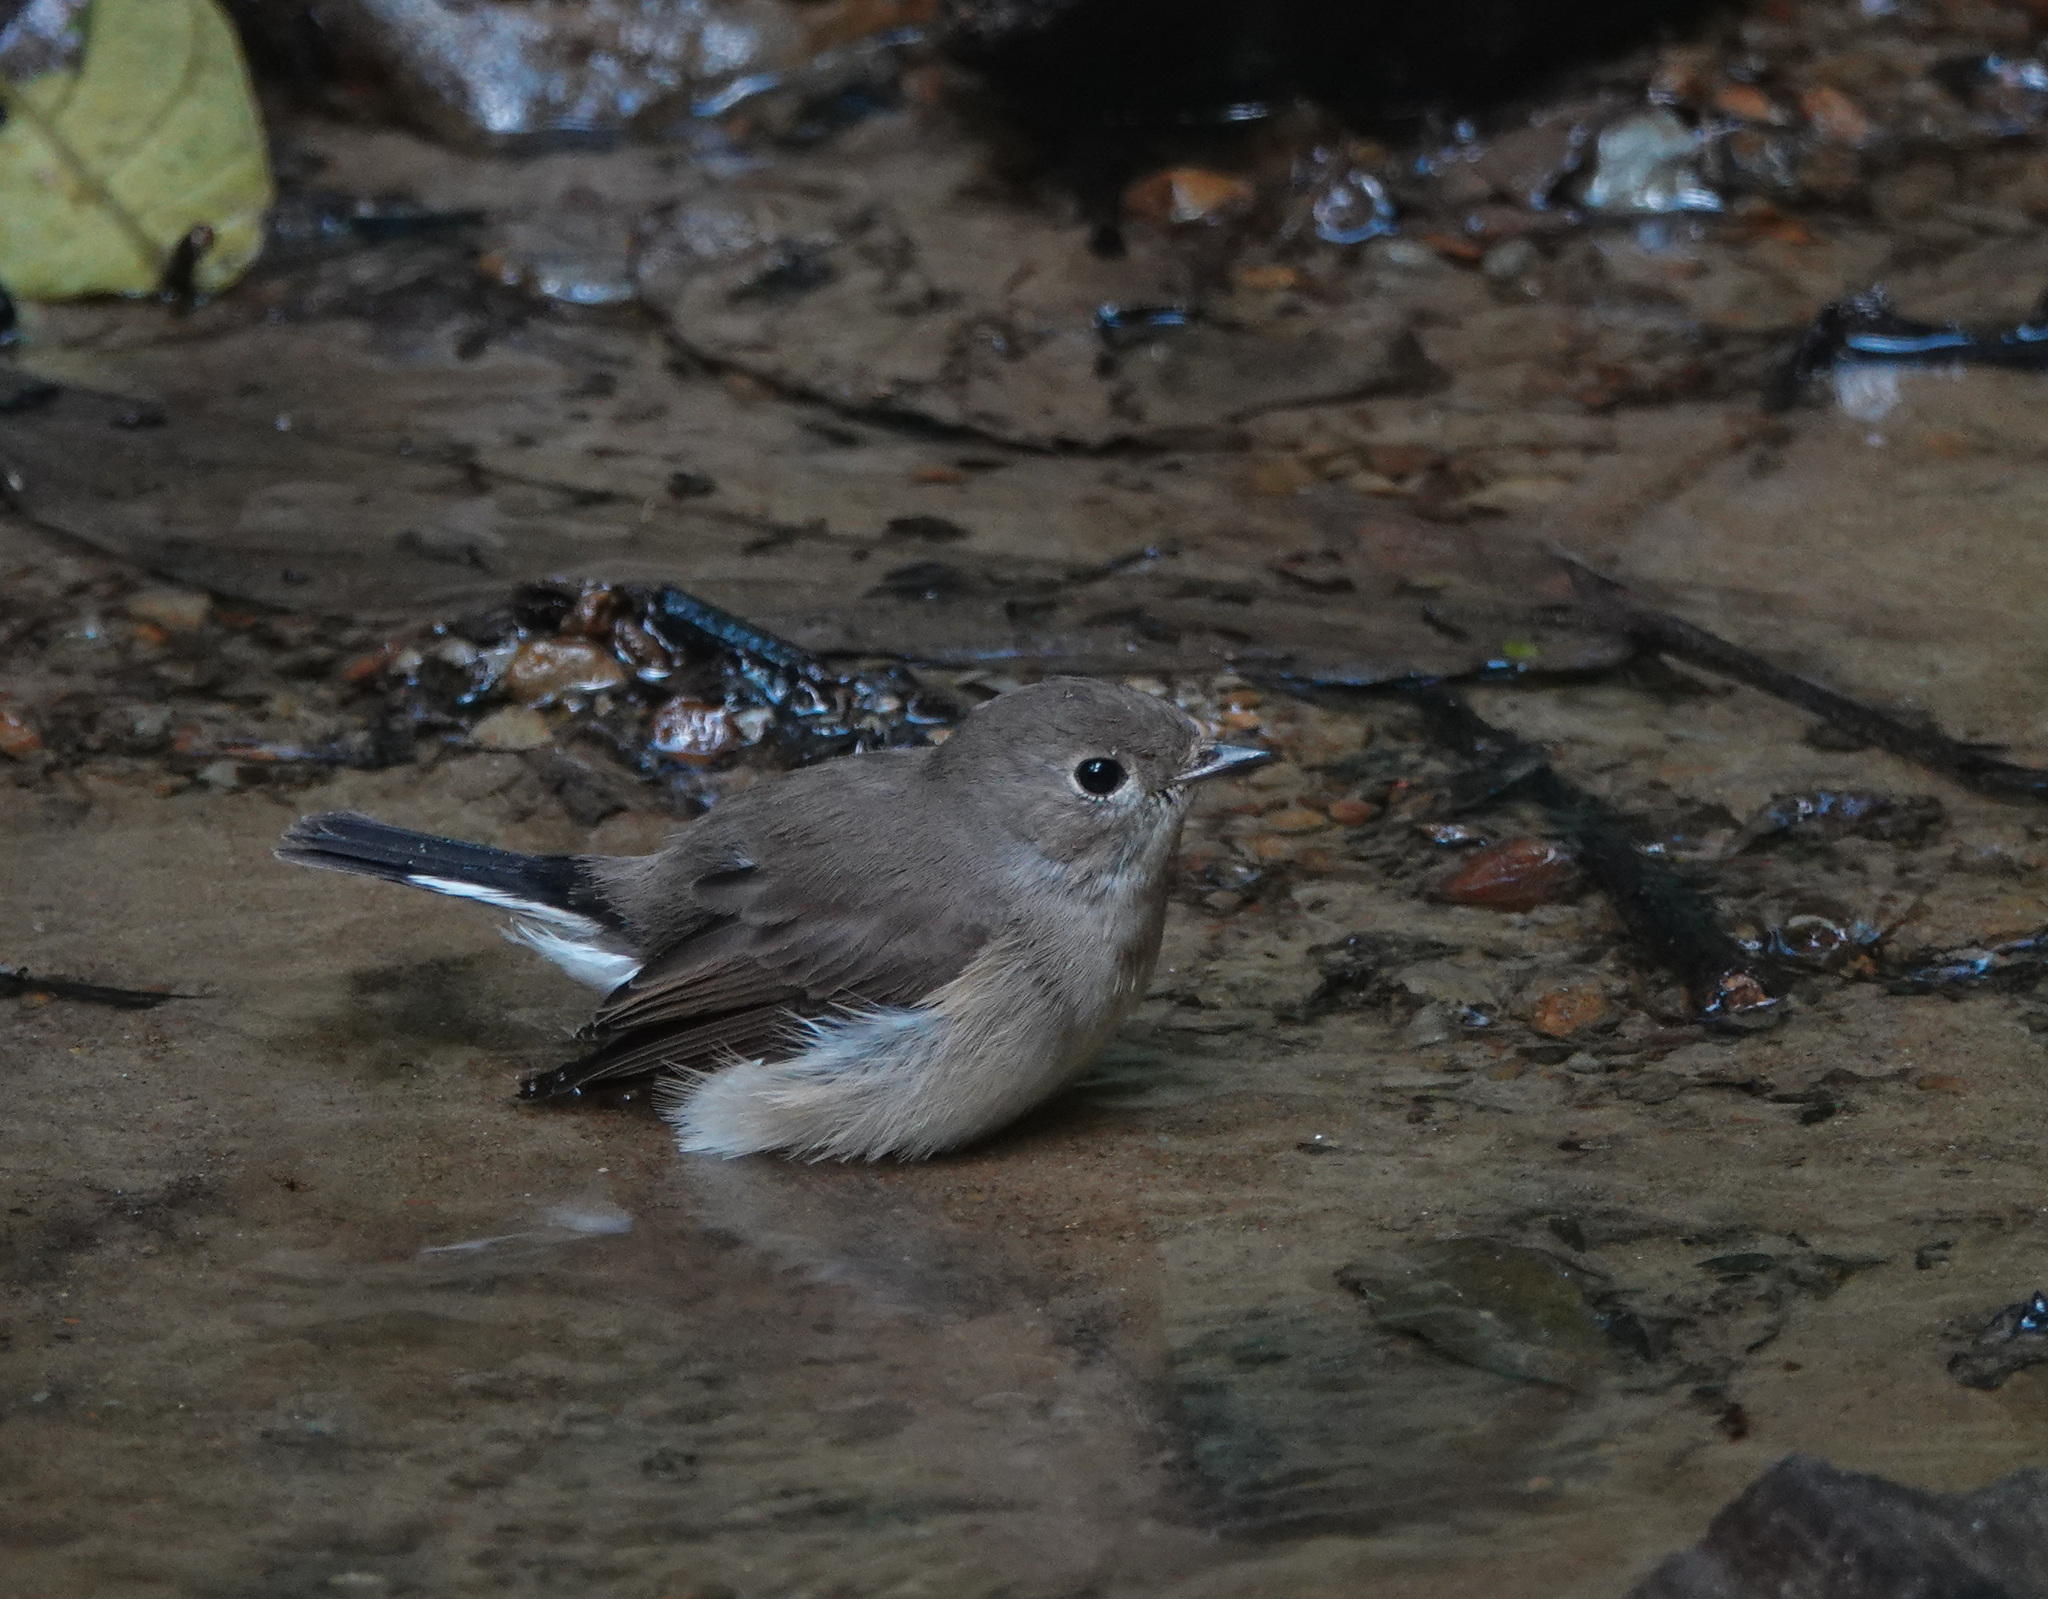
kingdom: Animalia
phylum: Chordata
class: Aves
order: Passeriformes
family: Muscicapidae
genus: Ficedula
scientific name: Ficedula albicilla
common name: Taiga flycatcher
